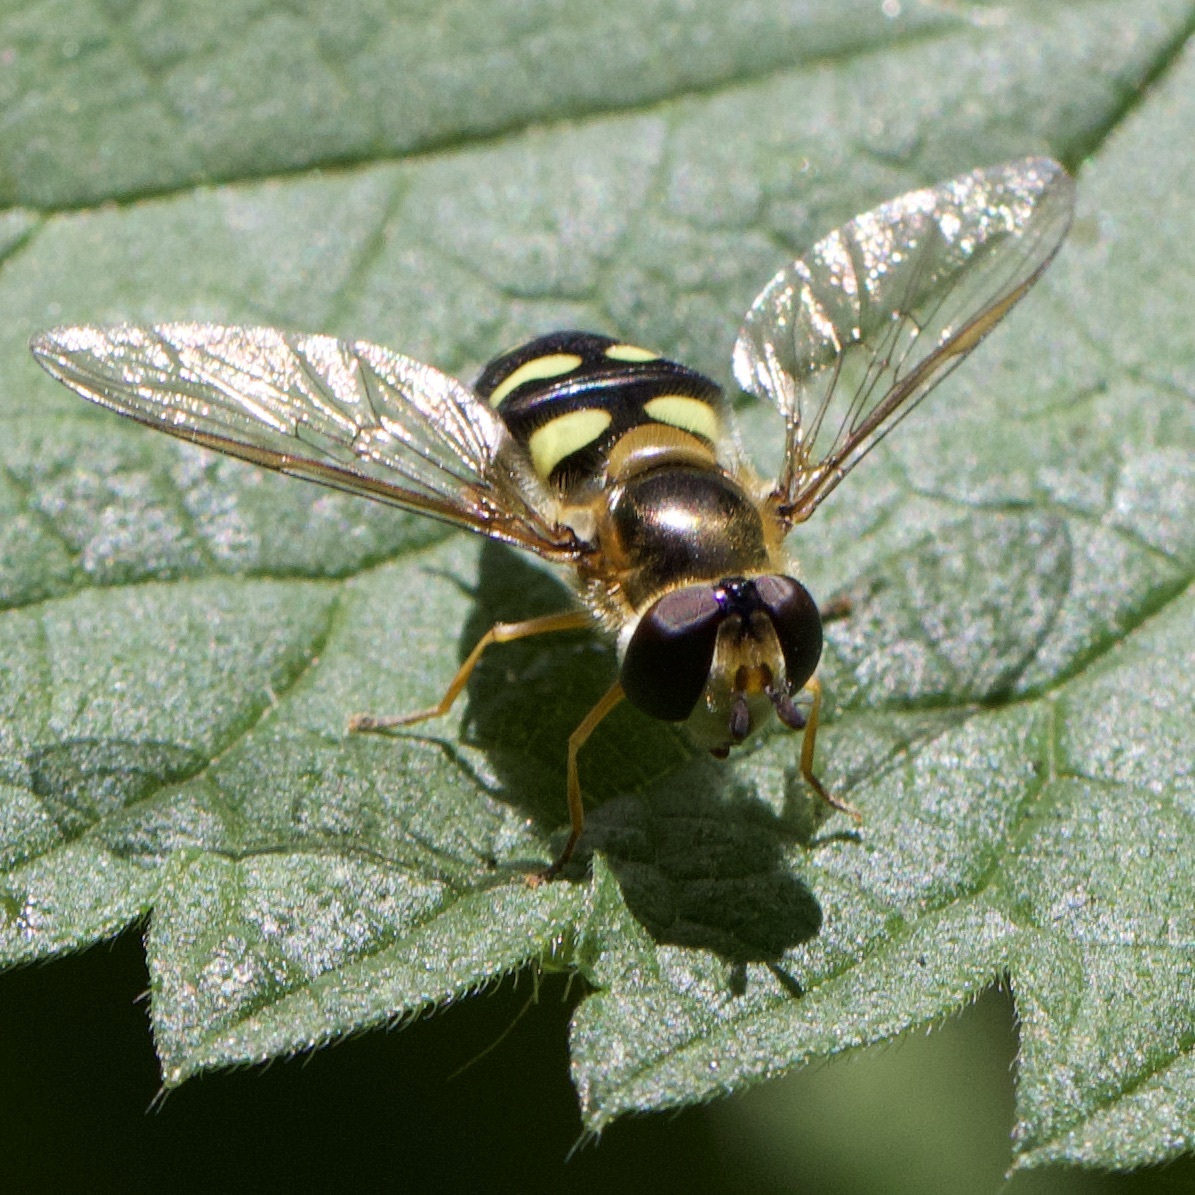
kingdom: Animalia
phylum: Arthropoda
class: Insecta
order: Diptera
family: Syrphidae
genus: Eupeodes
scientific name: Eupeodes luniger
